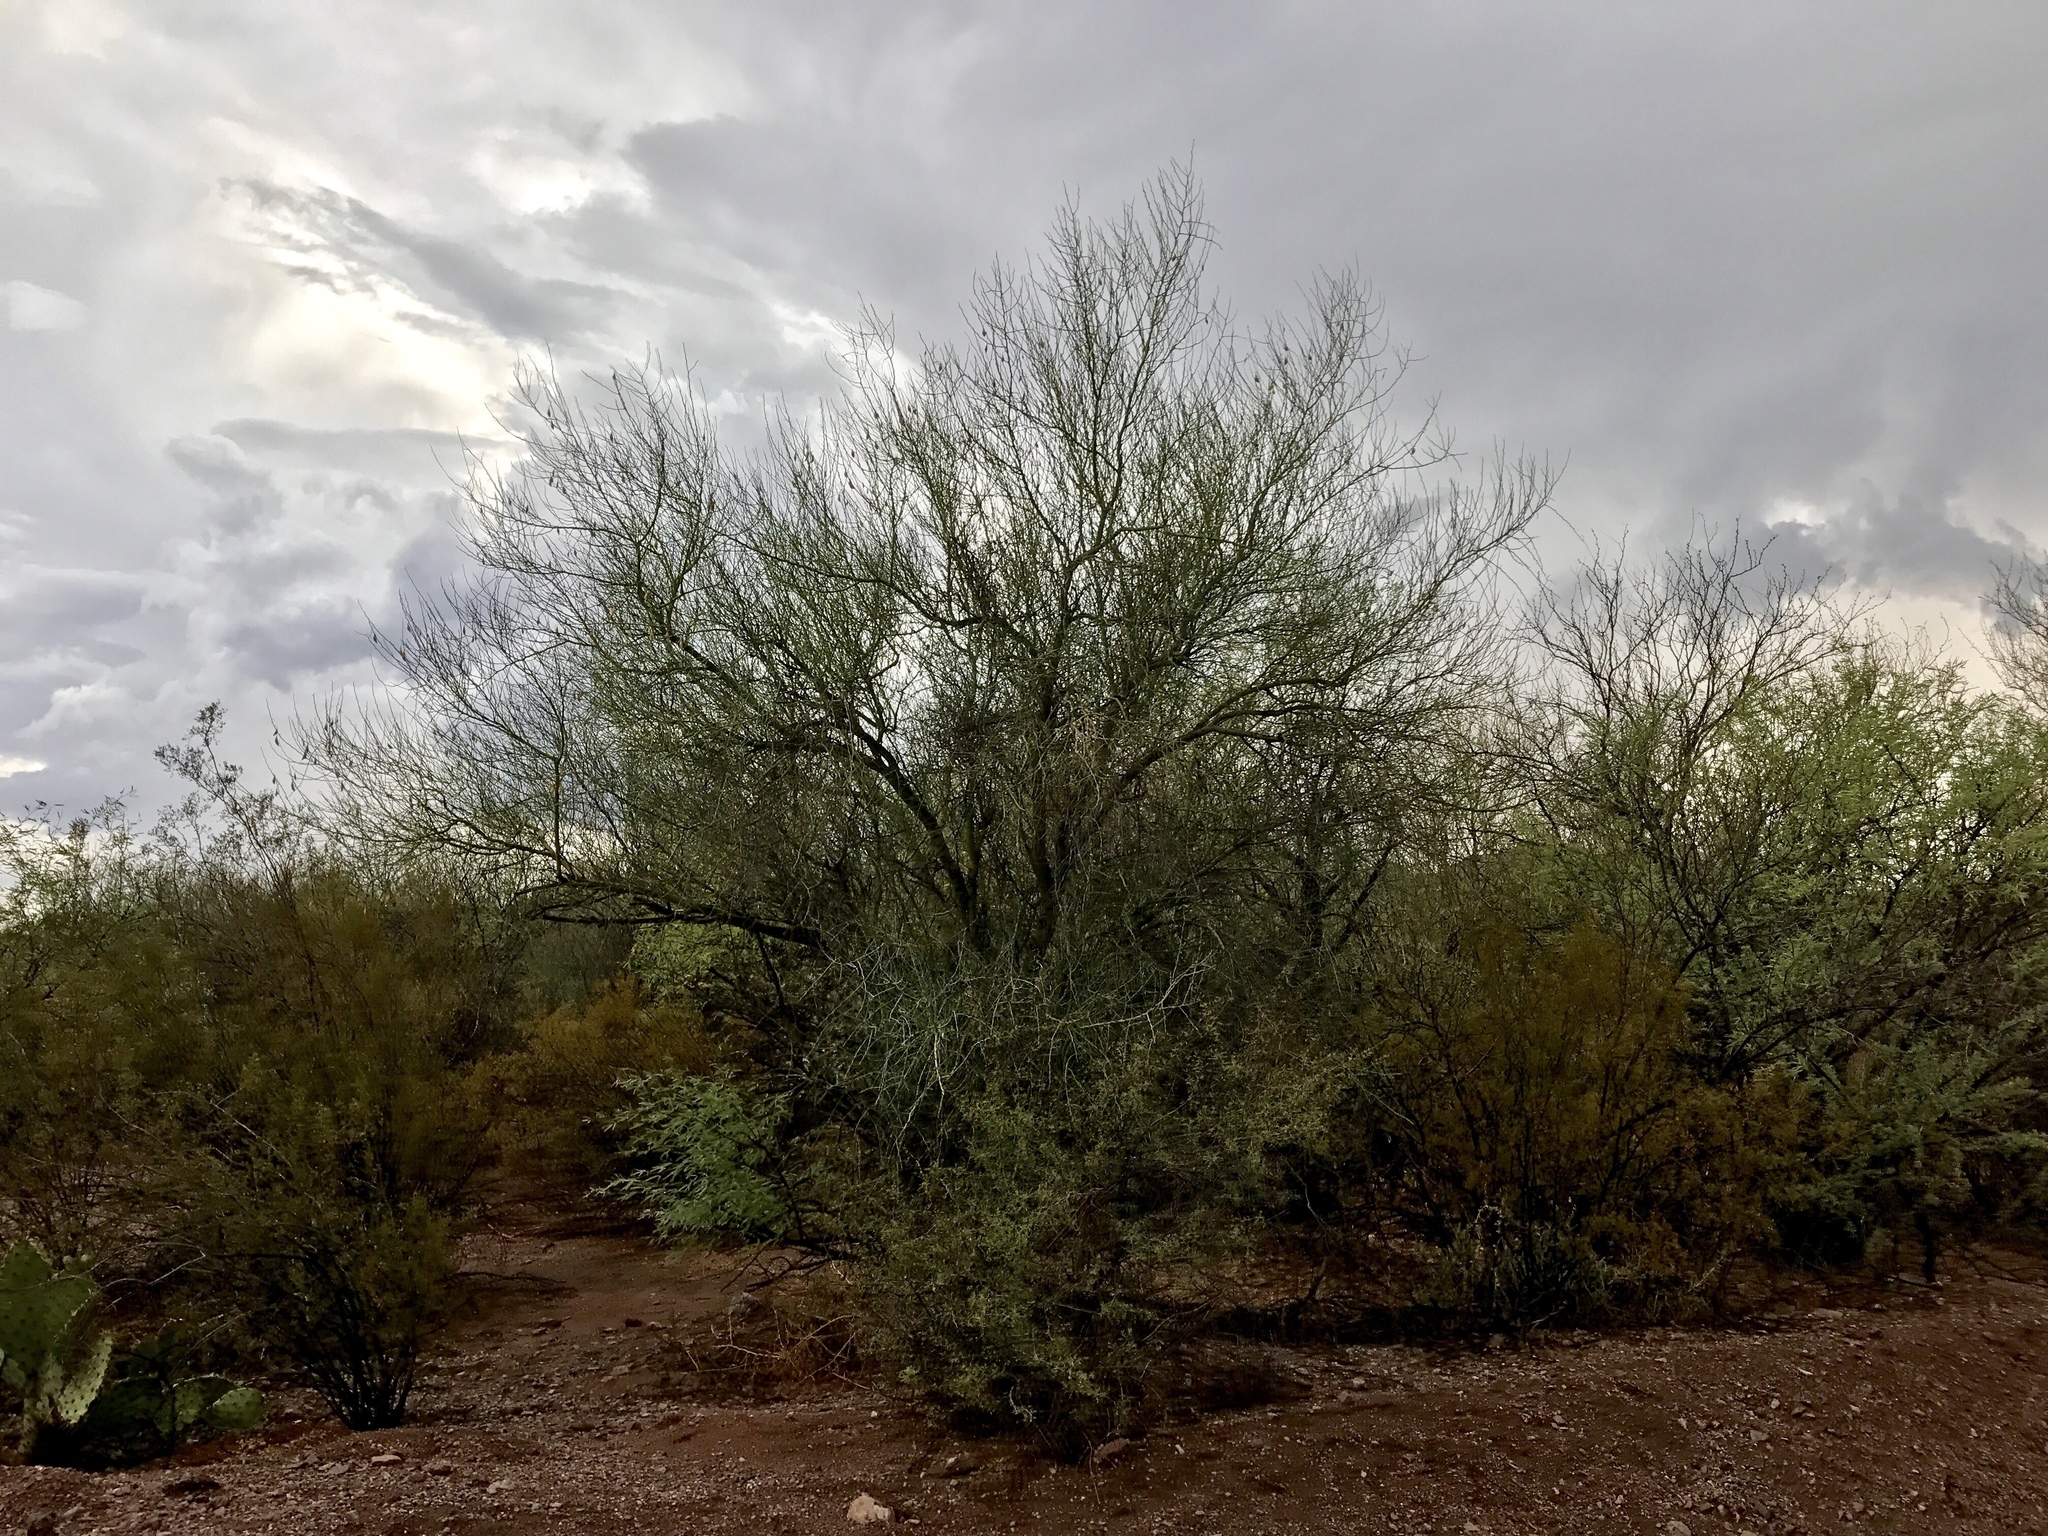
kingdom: Plantae
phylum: Tracheophyta
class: Magnoliopsida
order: Fabales
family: Fabaceae
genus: Parkinsonia
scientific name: Parkinsonia florida
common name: Blue paloverde
